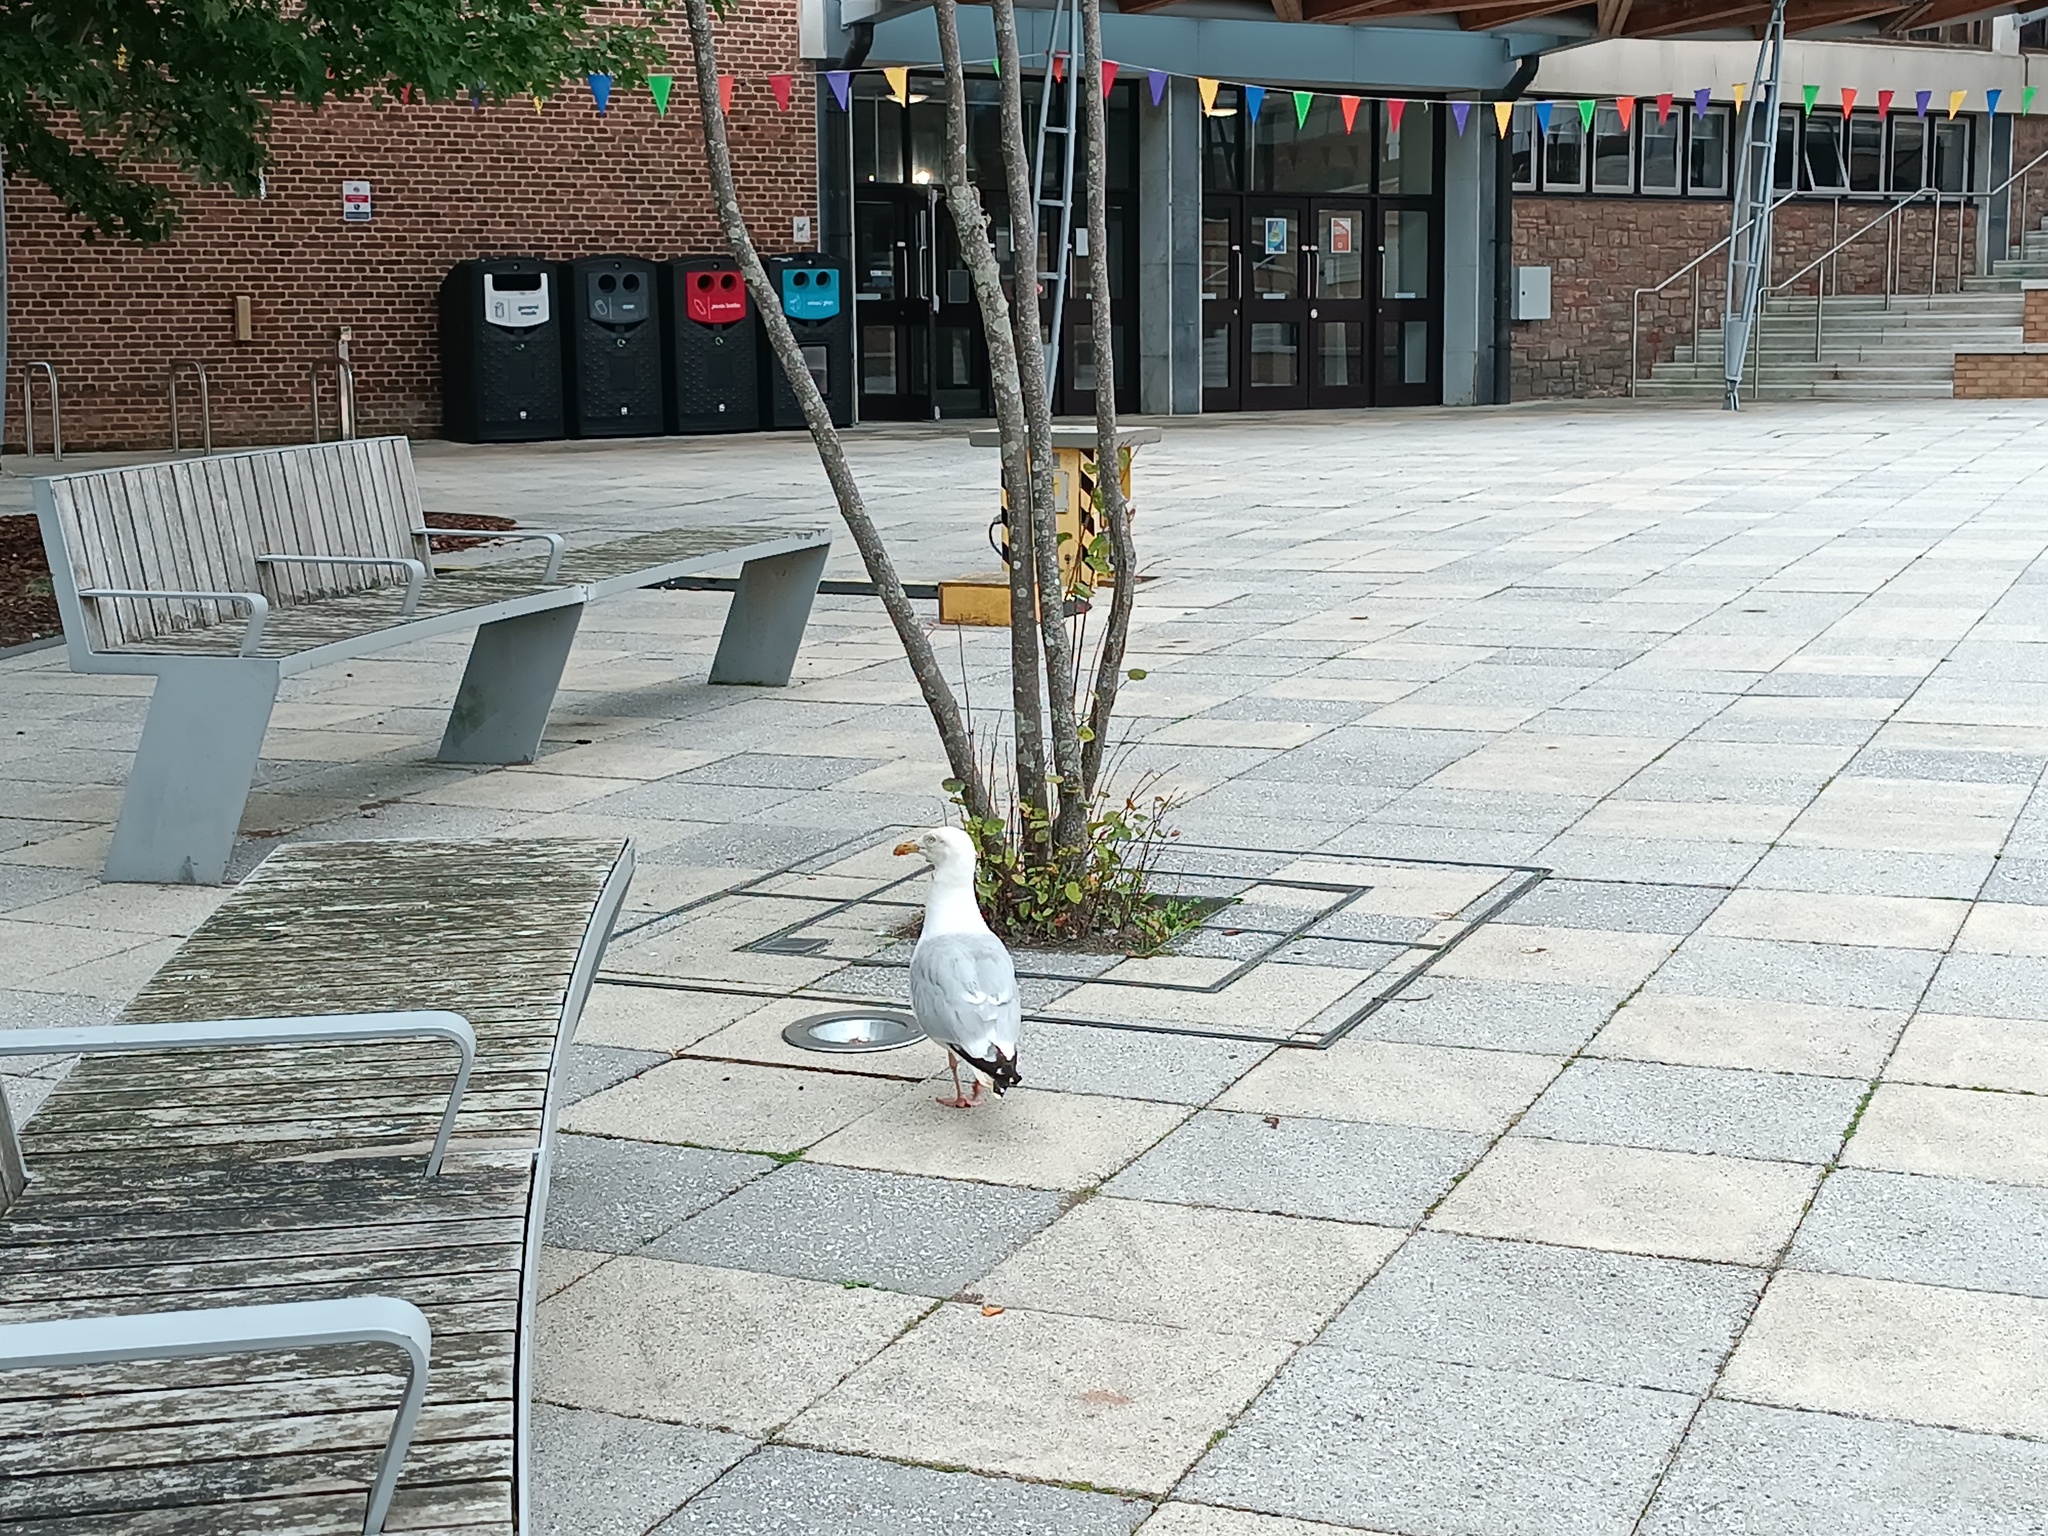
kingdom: Animalia
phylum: Chordata
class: Aves
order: Charadriiformes
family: Laridae
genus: Larus
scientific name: Larus argentatus
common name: Herring gull
